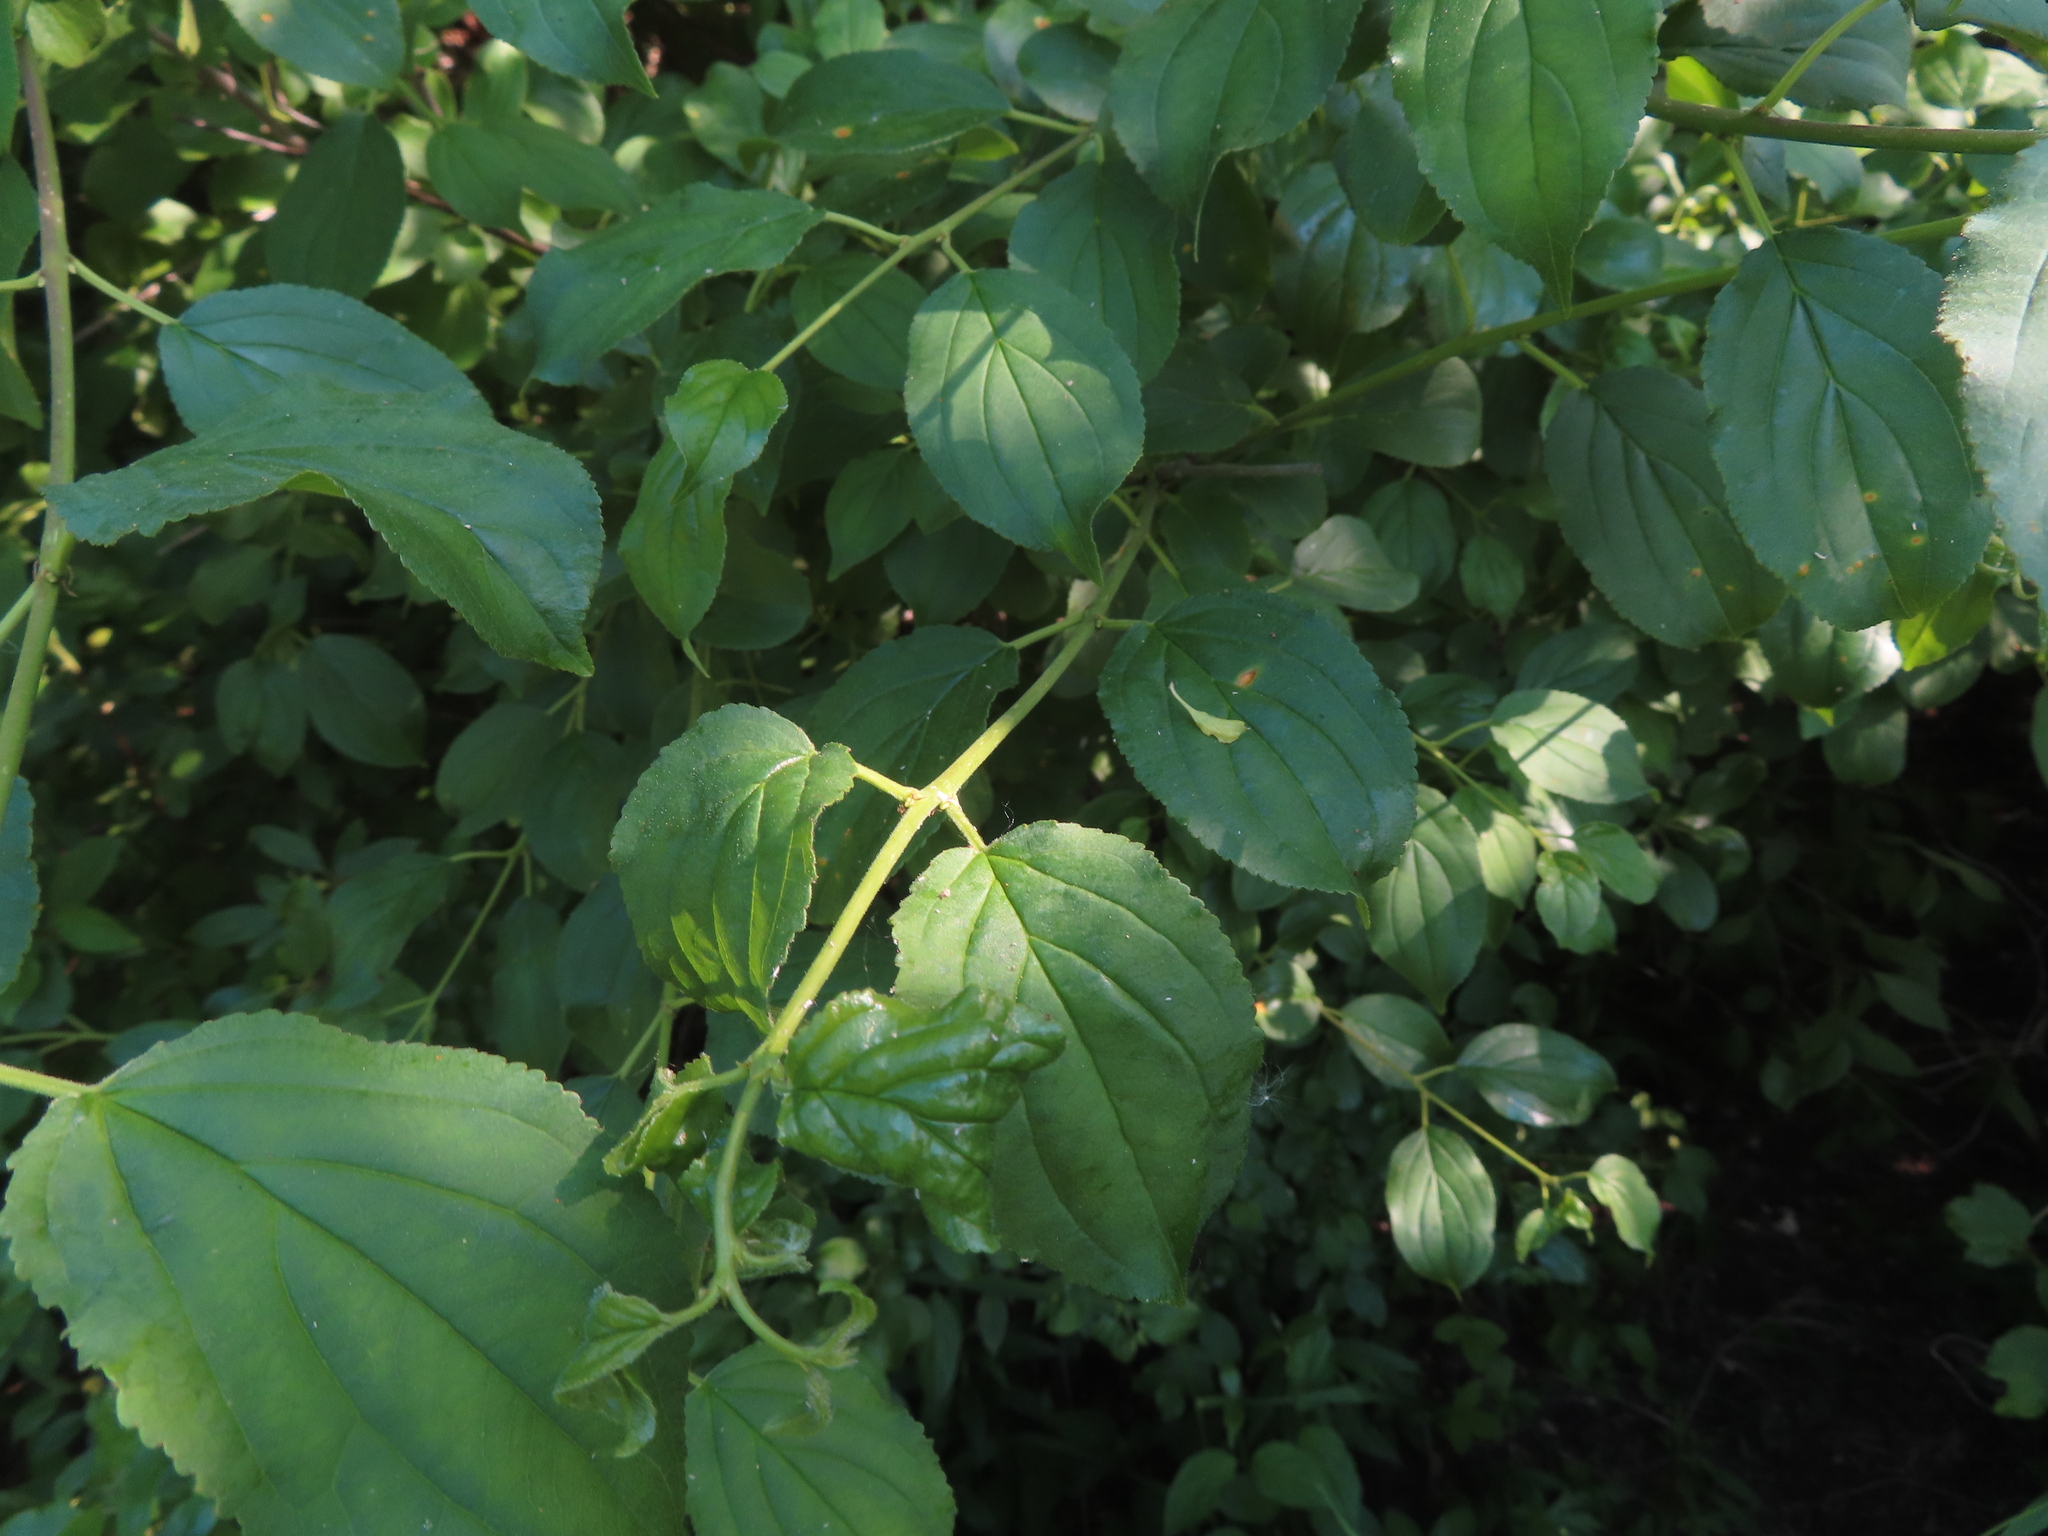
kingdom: Plantae
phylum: Tracheophyta
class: Magnoliopsida
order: Rosales
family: Rhamnaceae
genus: Rhamnus
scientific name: Rhamnus cathartica
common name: Common buckthorn
